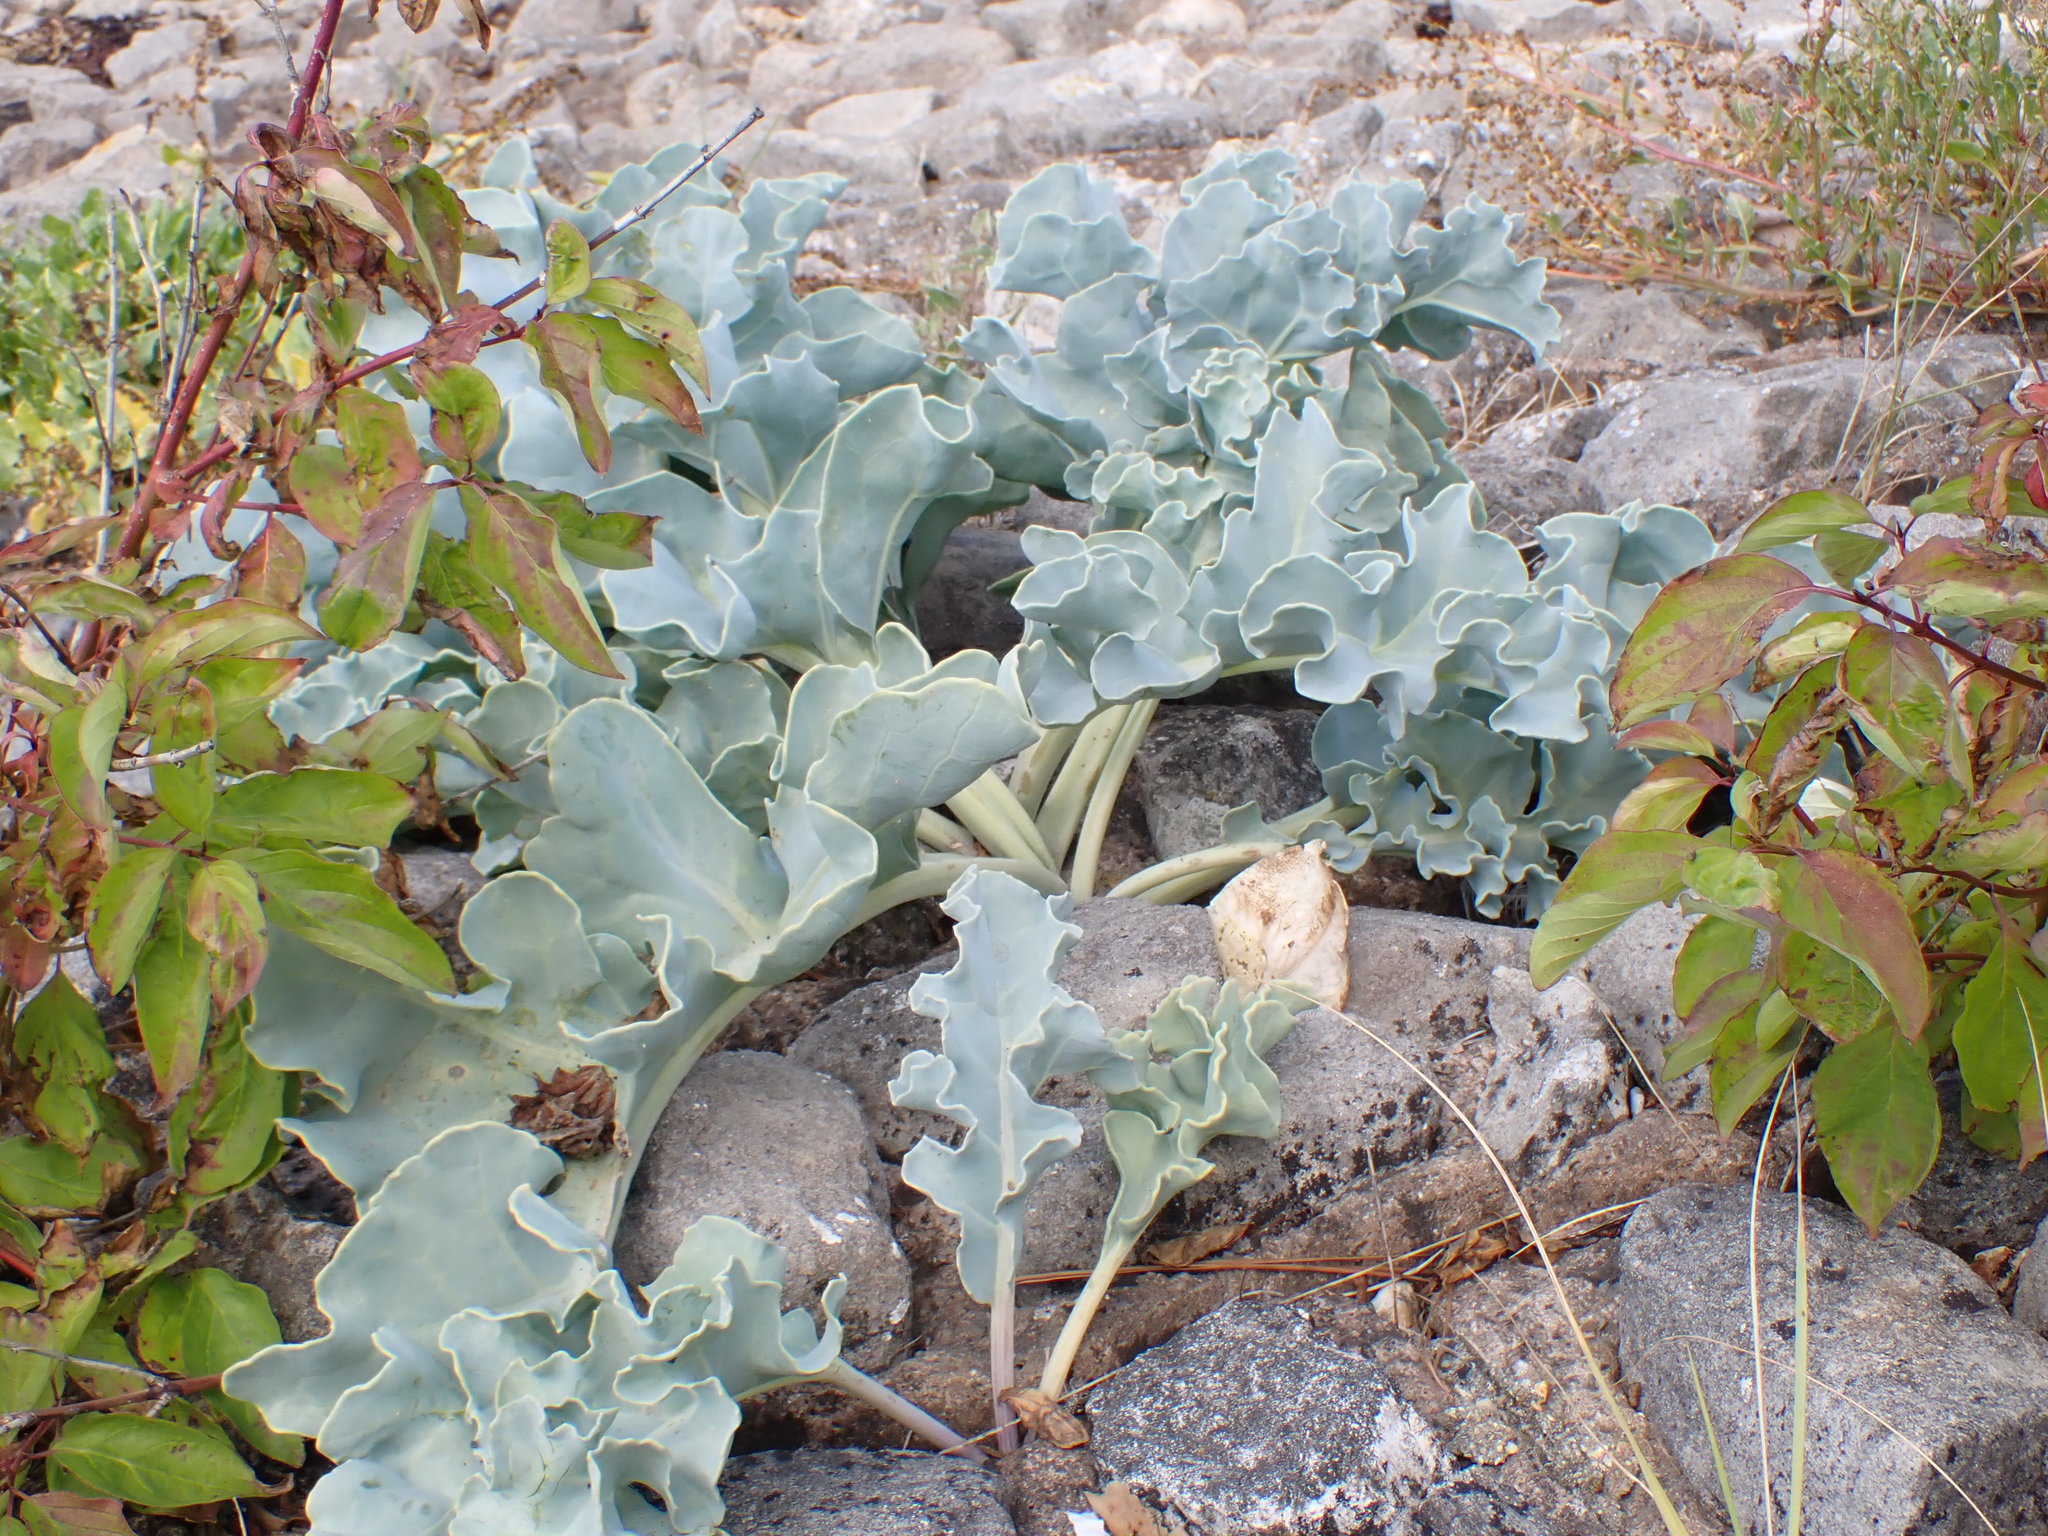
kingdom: Plantae
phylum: Tracheophyta
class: Magnoliopsida
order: Brassicales
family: Brassicaceae
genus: Crambe
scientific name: Crambe maritima
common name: Sea-kale
